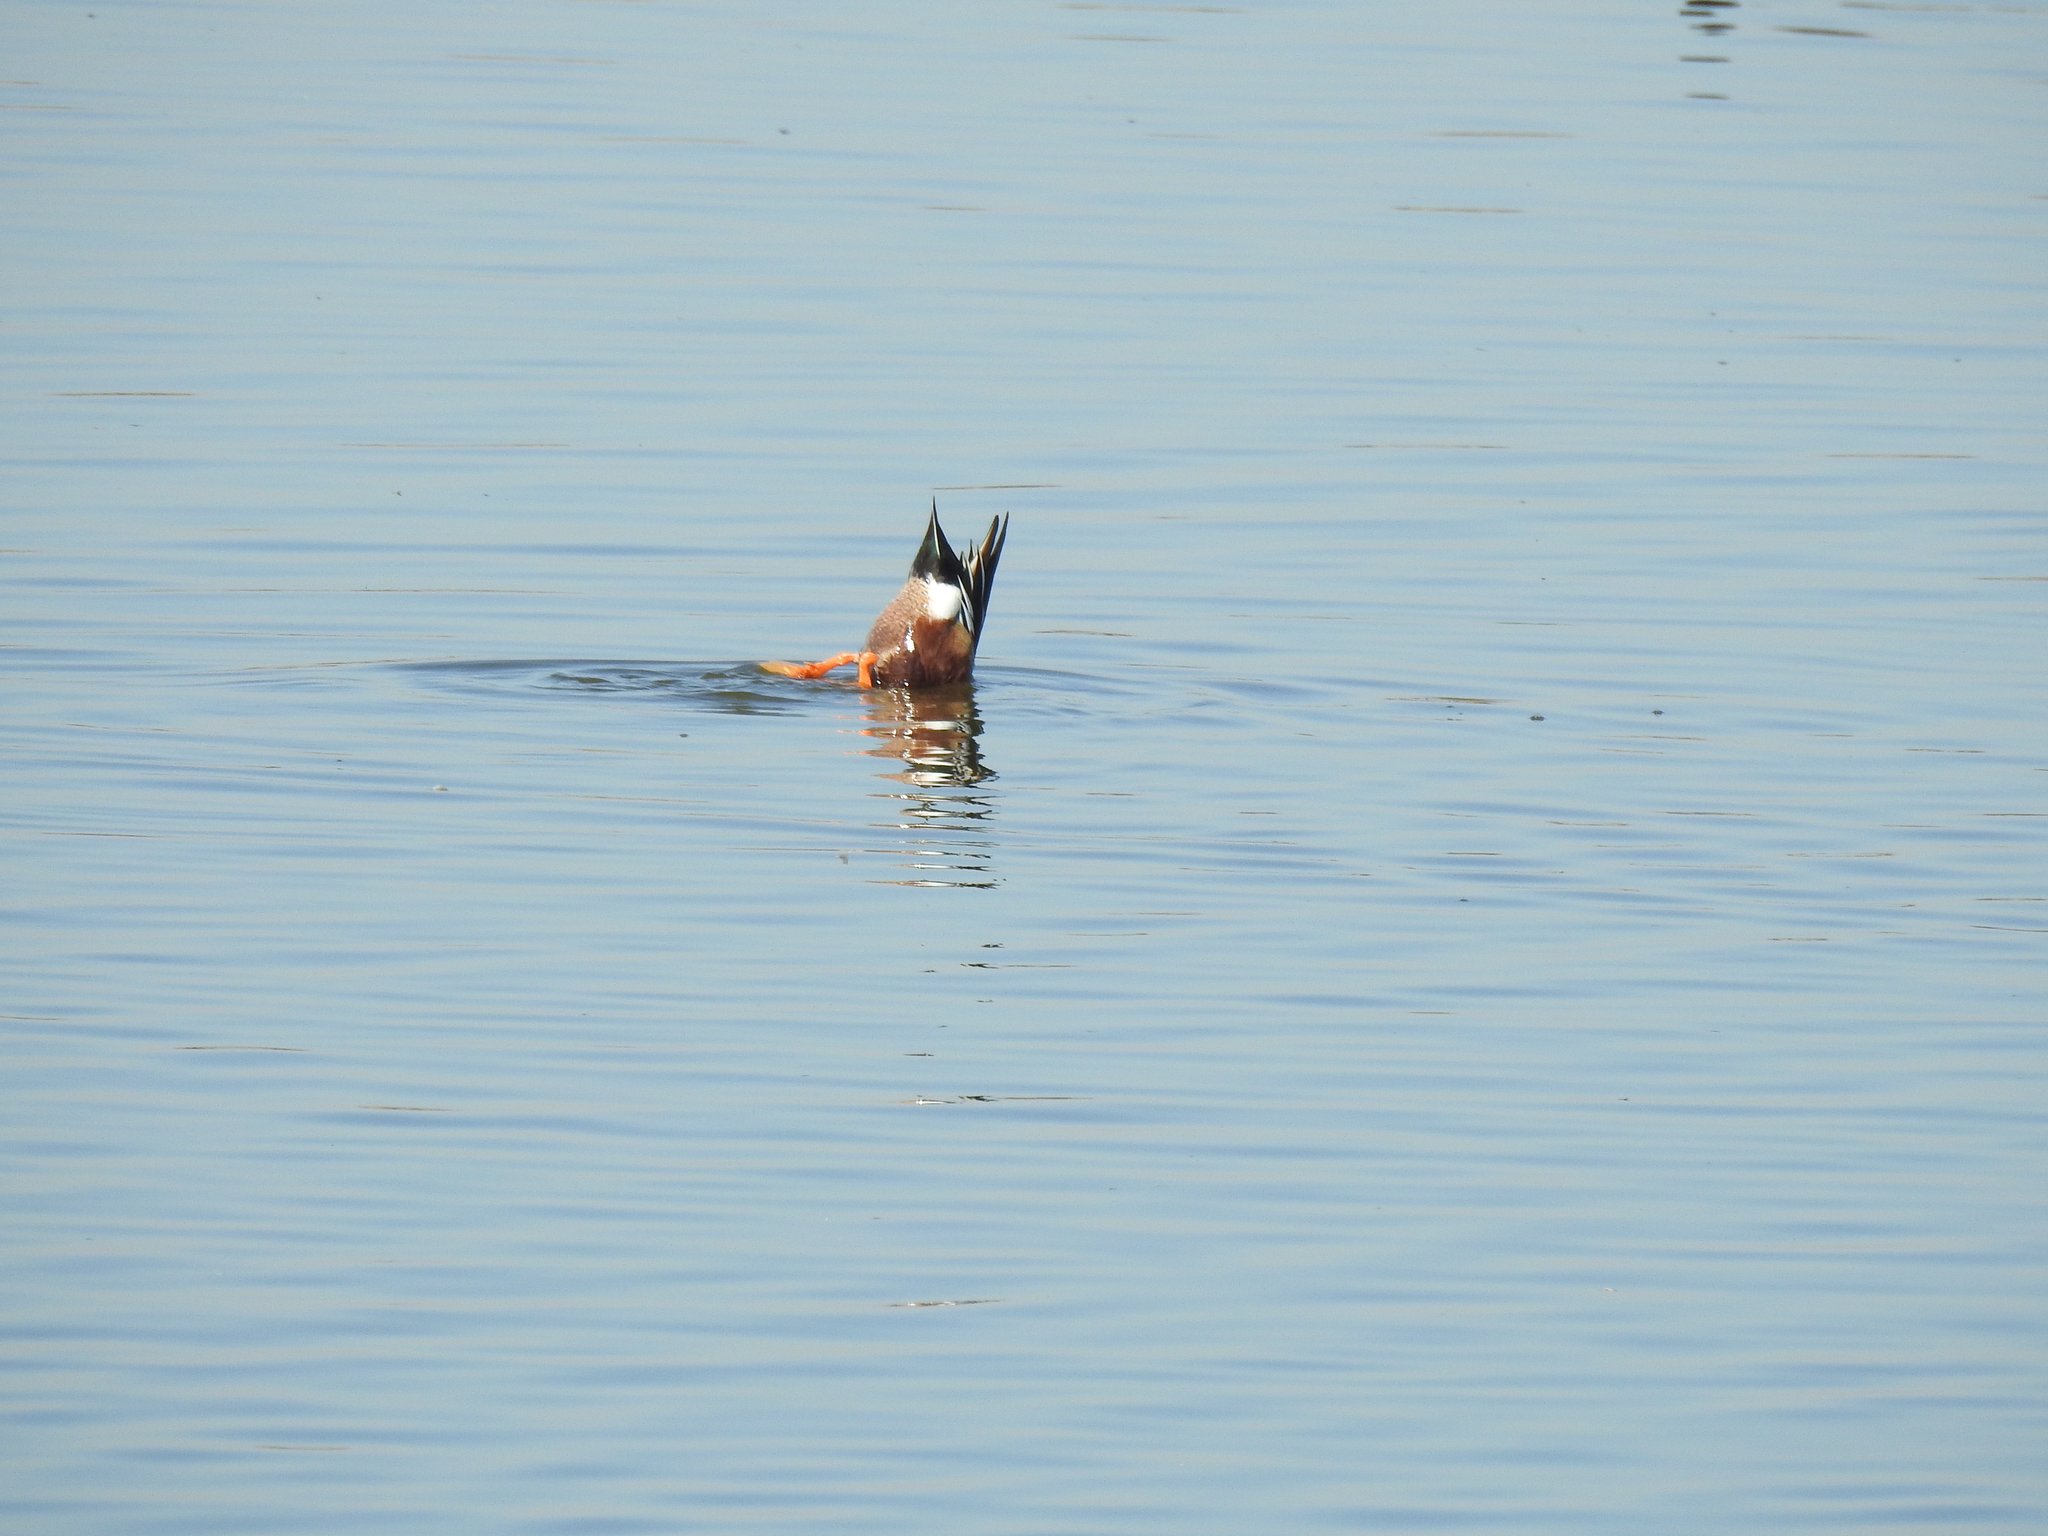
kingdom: Animalia
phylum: Chordata
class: Aves
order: Anseriformes
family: Anatidae
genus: Spatula
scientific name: Spatula clypeata
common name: Northern shoveler
